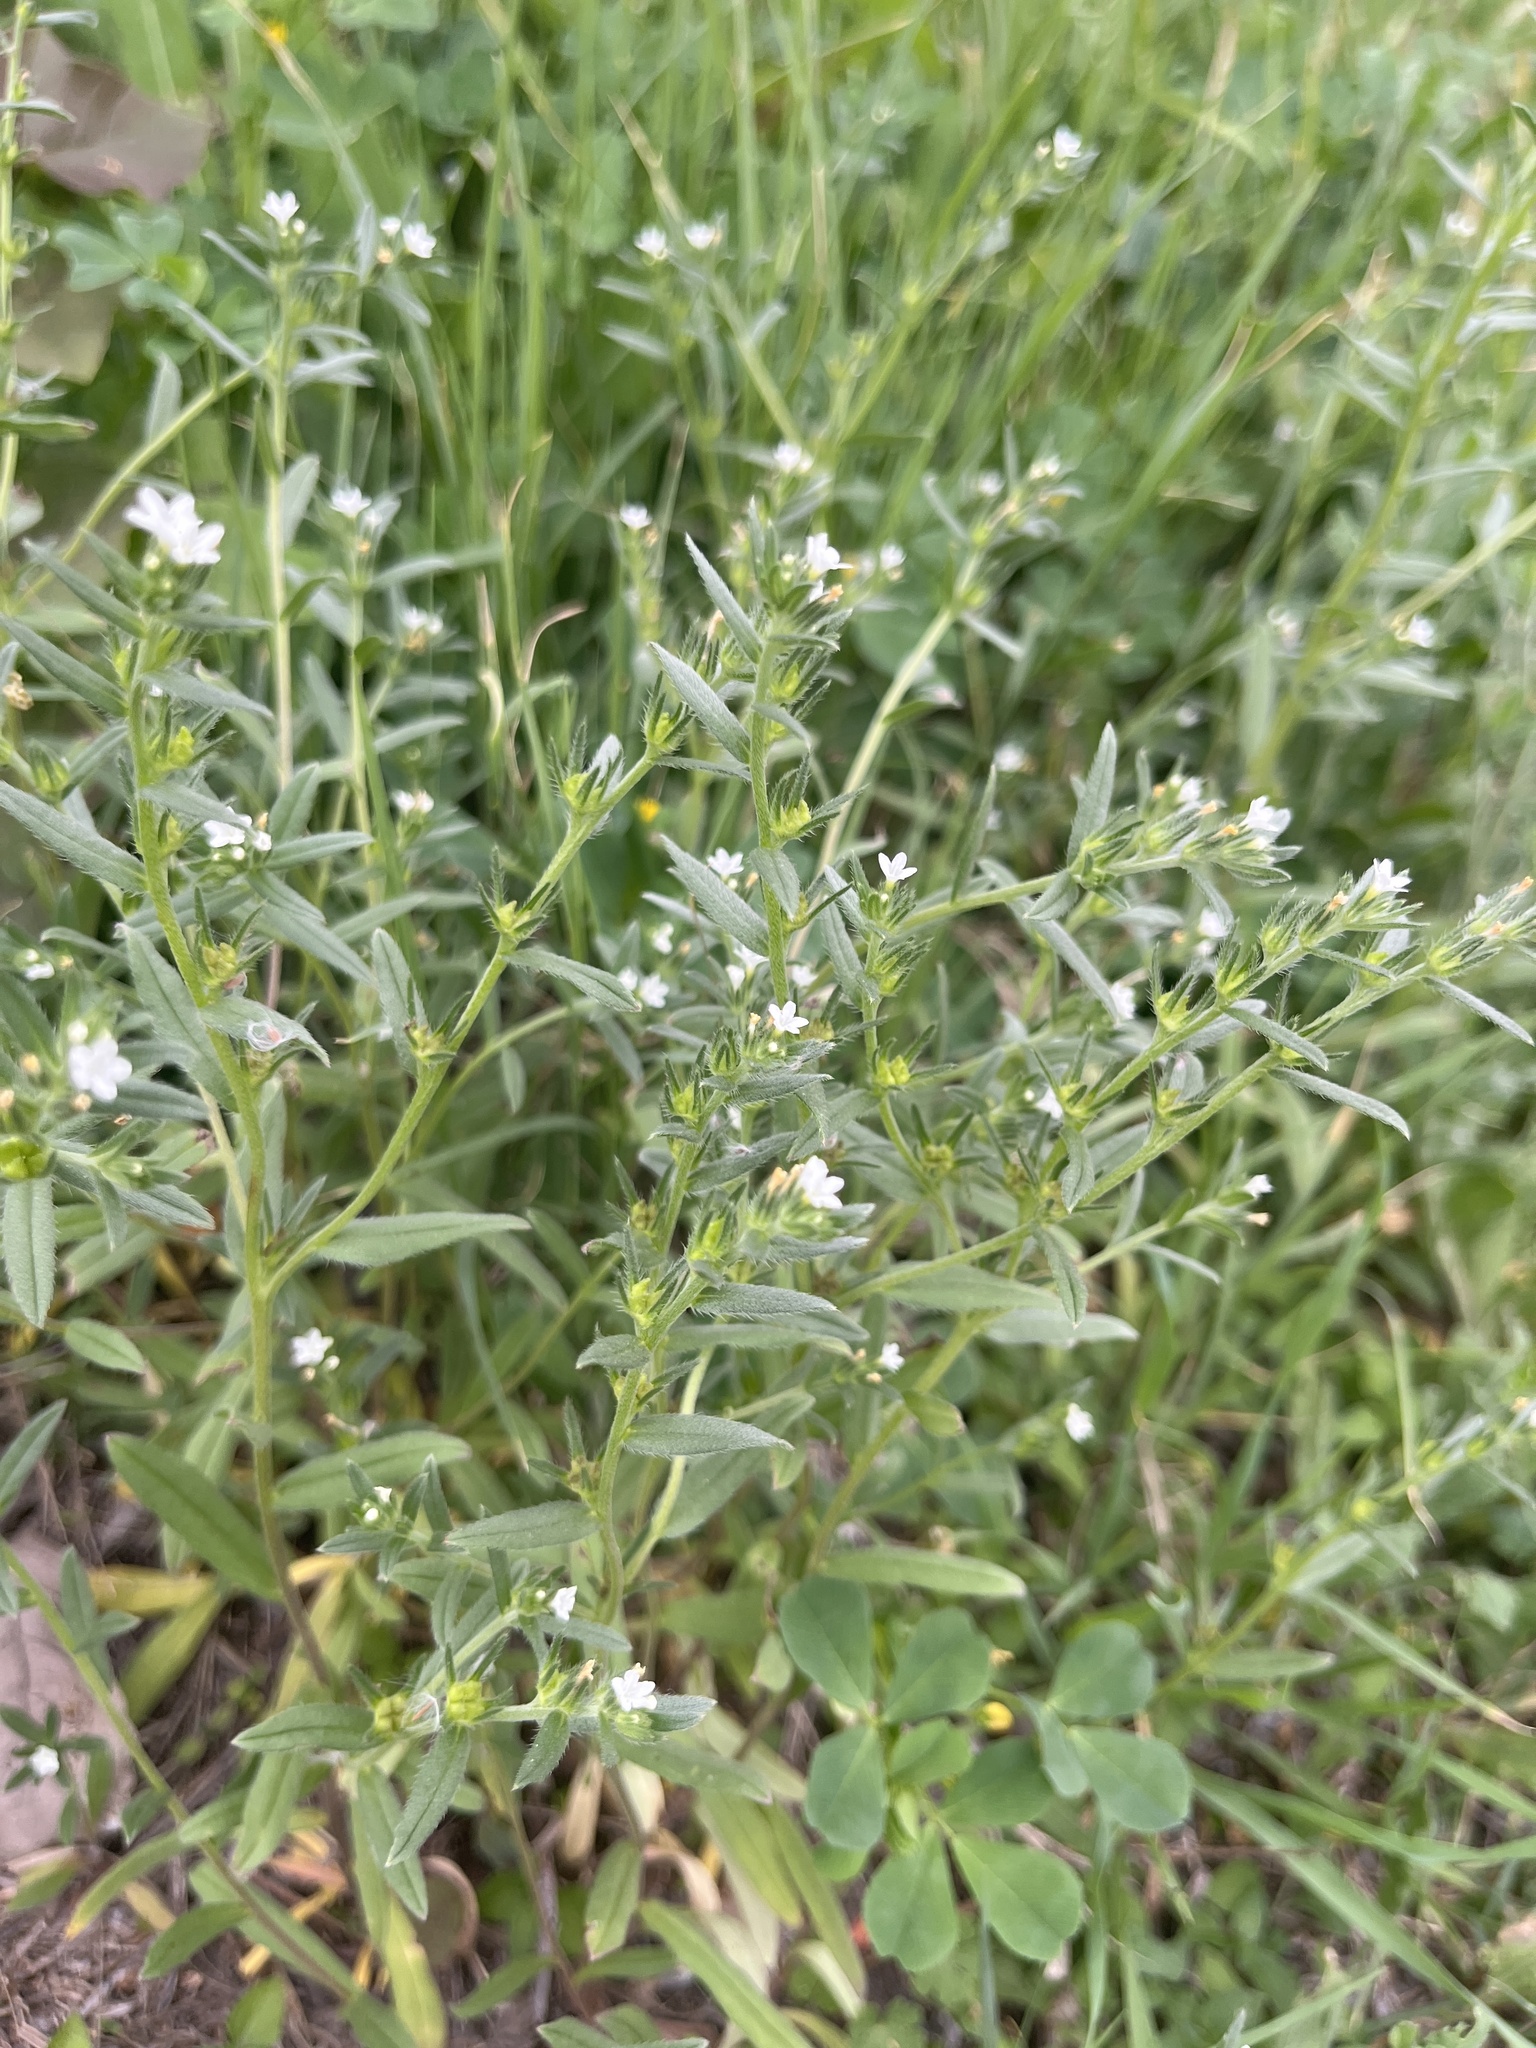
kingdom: Plantae
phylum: Tracheophyta
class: Magnoliopsida
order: Boraginales
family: Boraginaceae
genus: Buglossoides
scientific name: Buglossoides arvensis
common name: Corn gromwell
